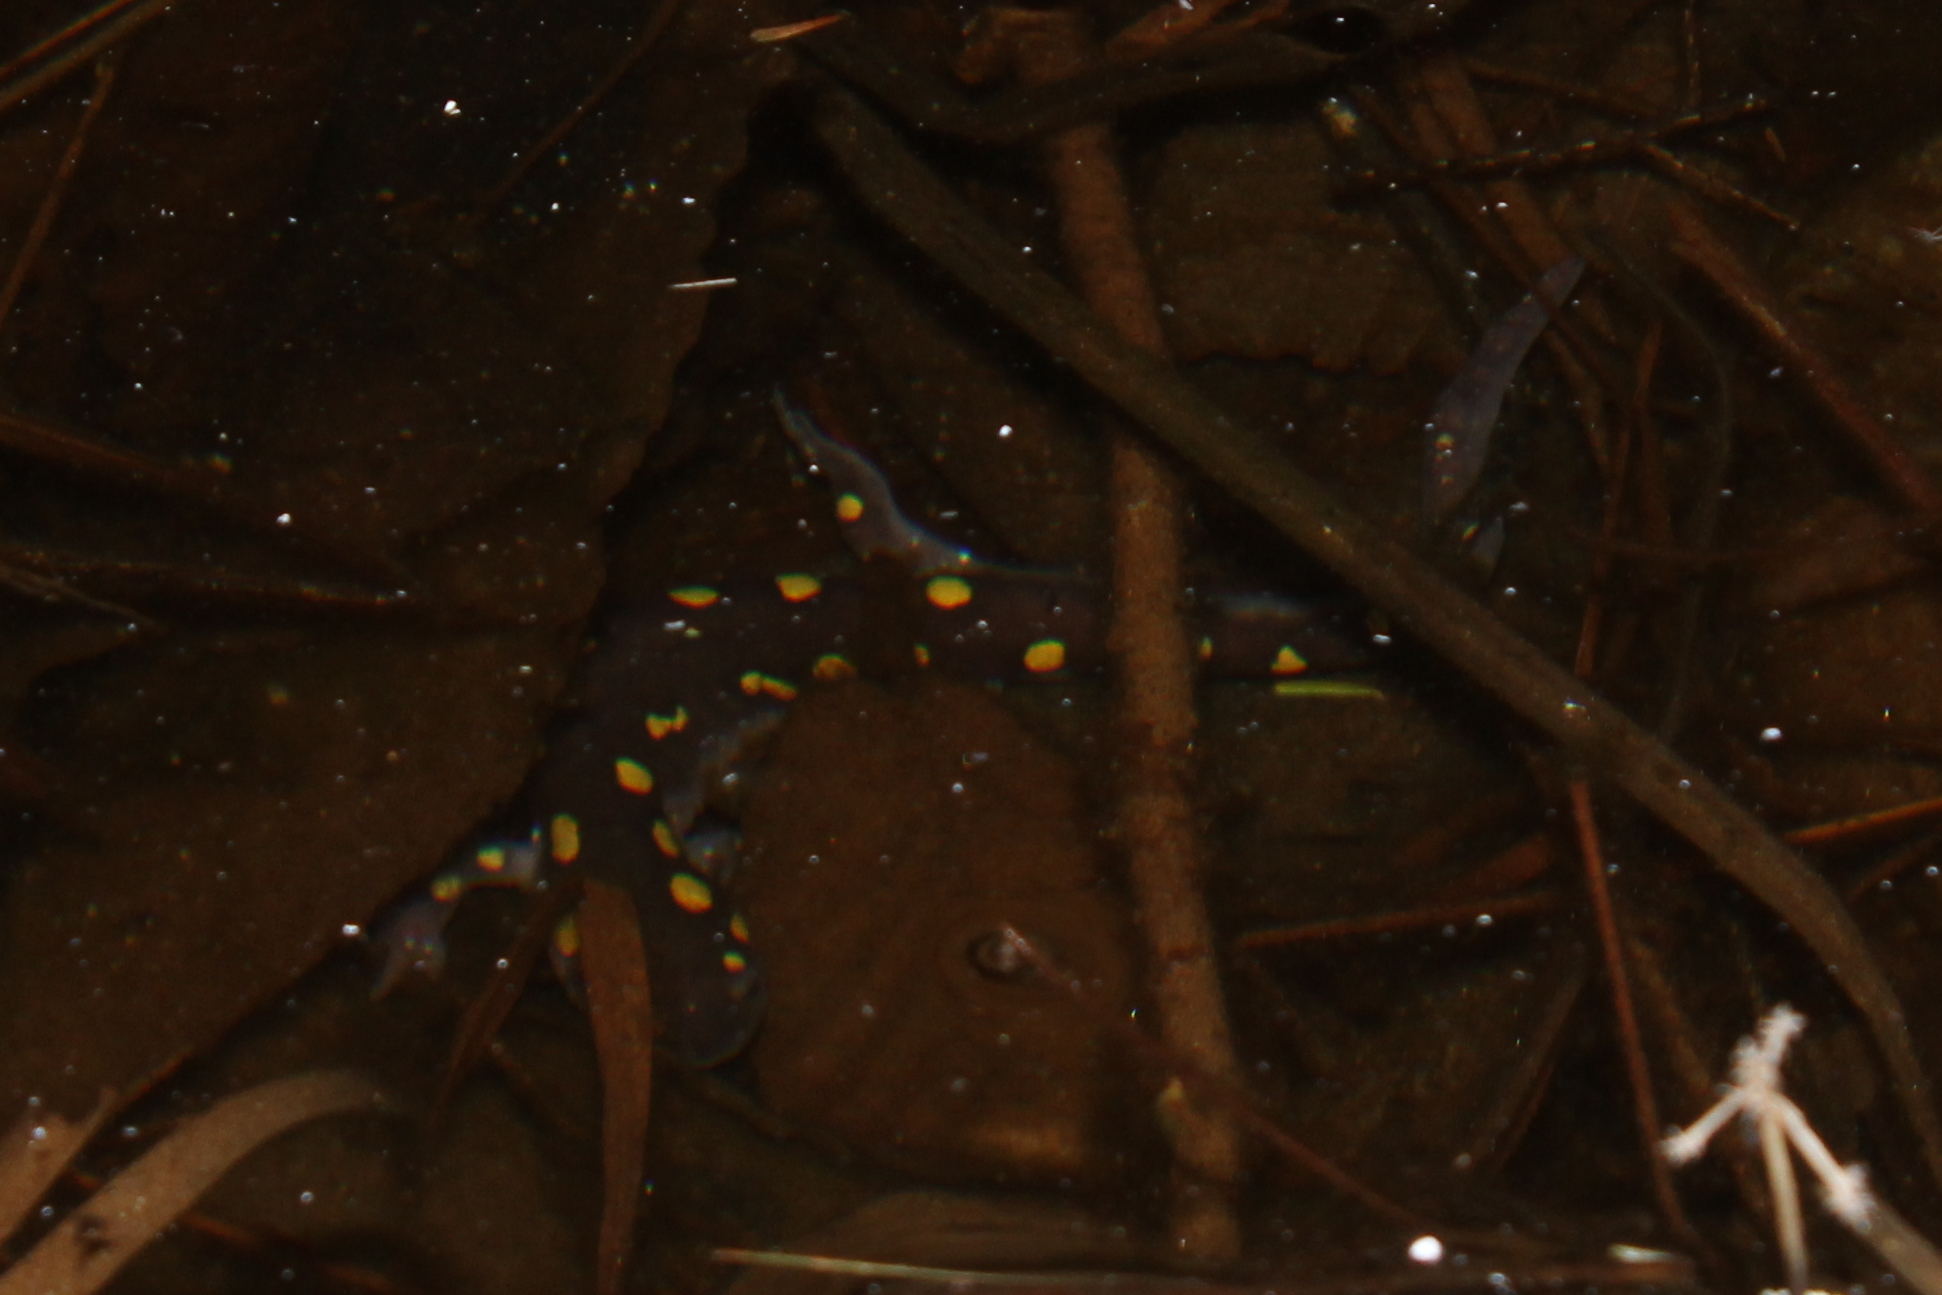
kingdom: Animalia
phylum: Chordata
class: Amphibia
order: Caudata
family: Ambystomatidae
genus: Ambystoma
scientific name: Ambystoma maculatum
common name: Spotted salamander
